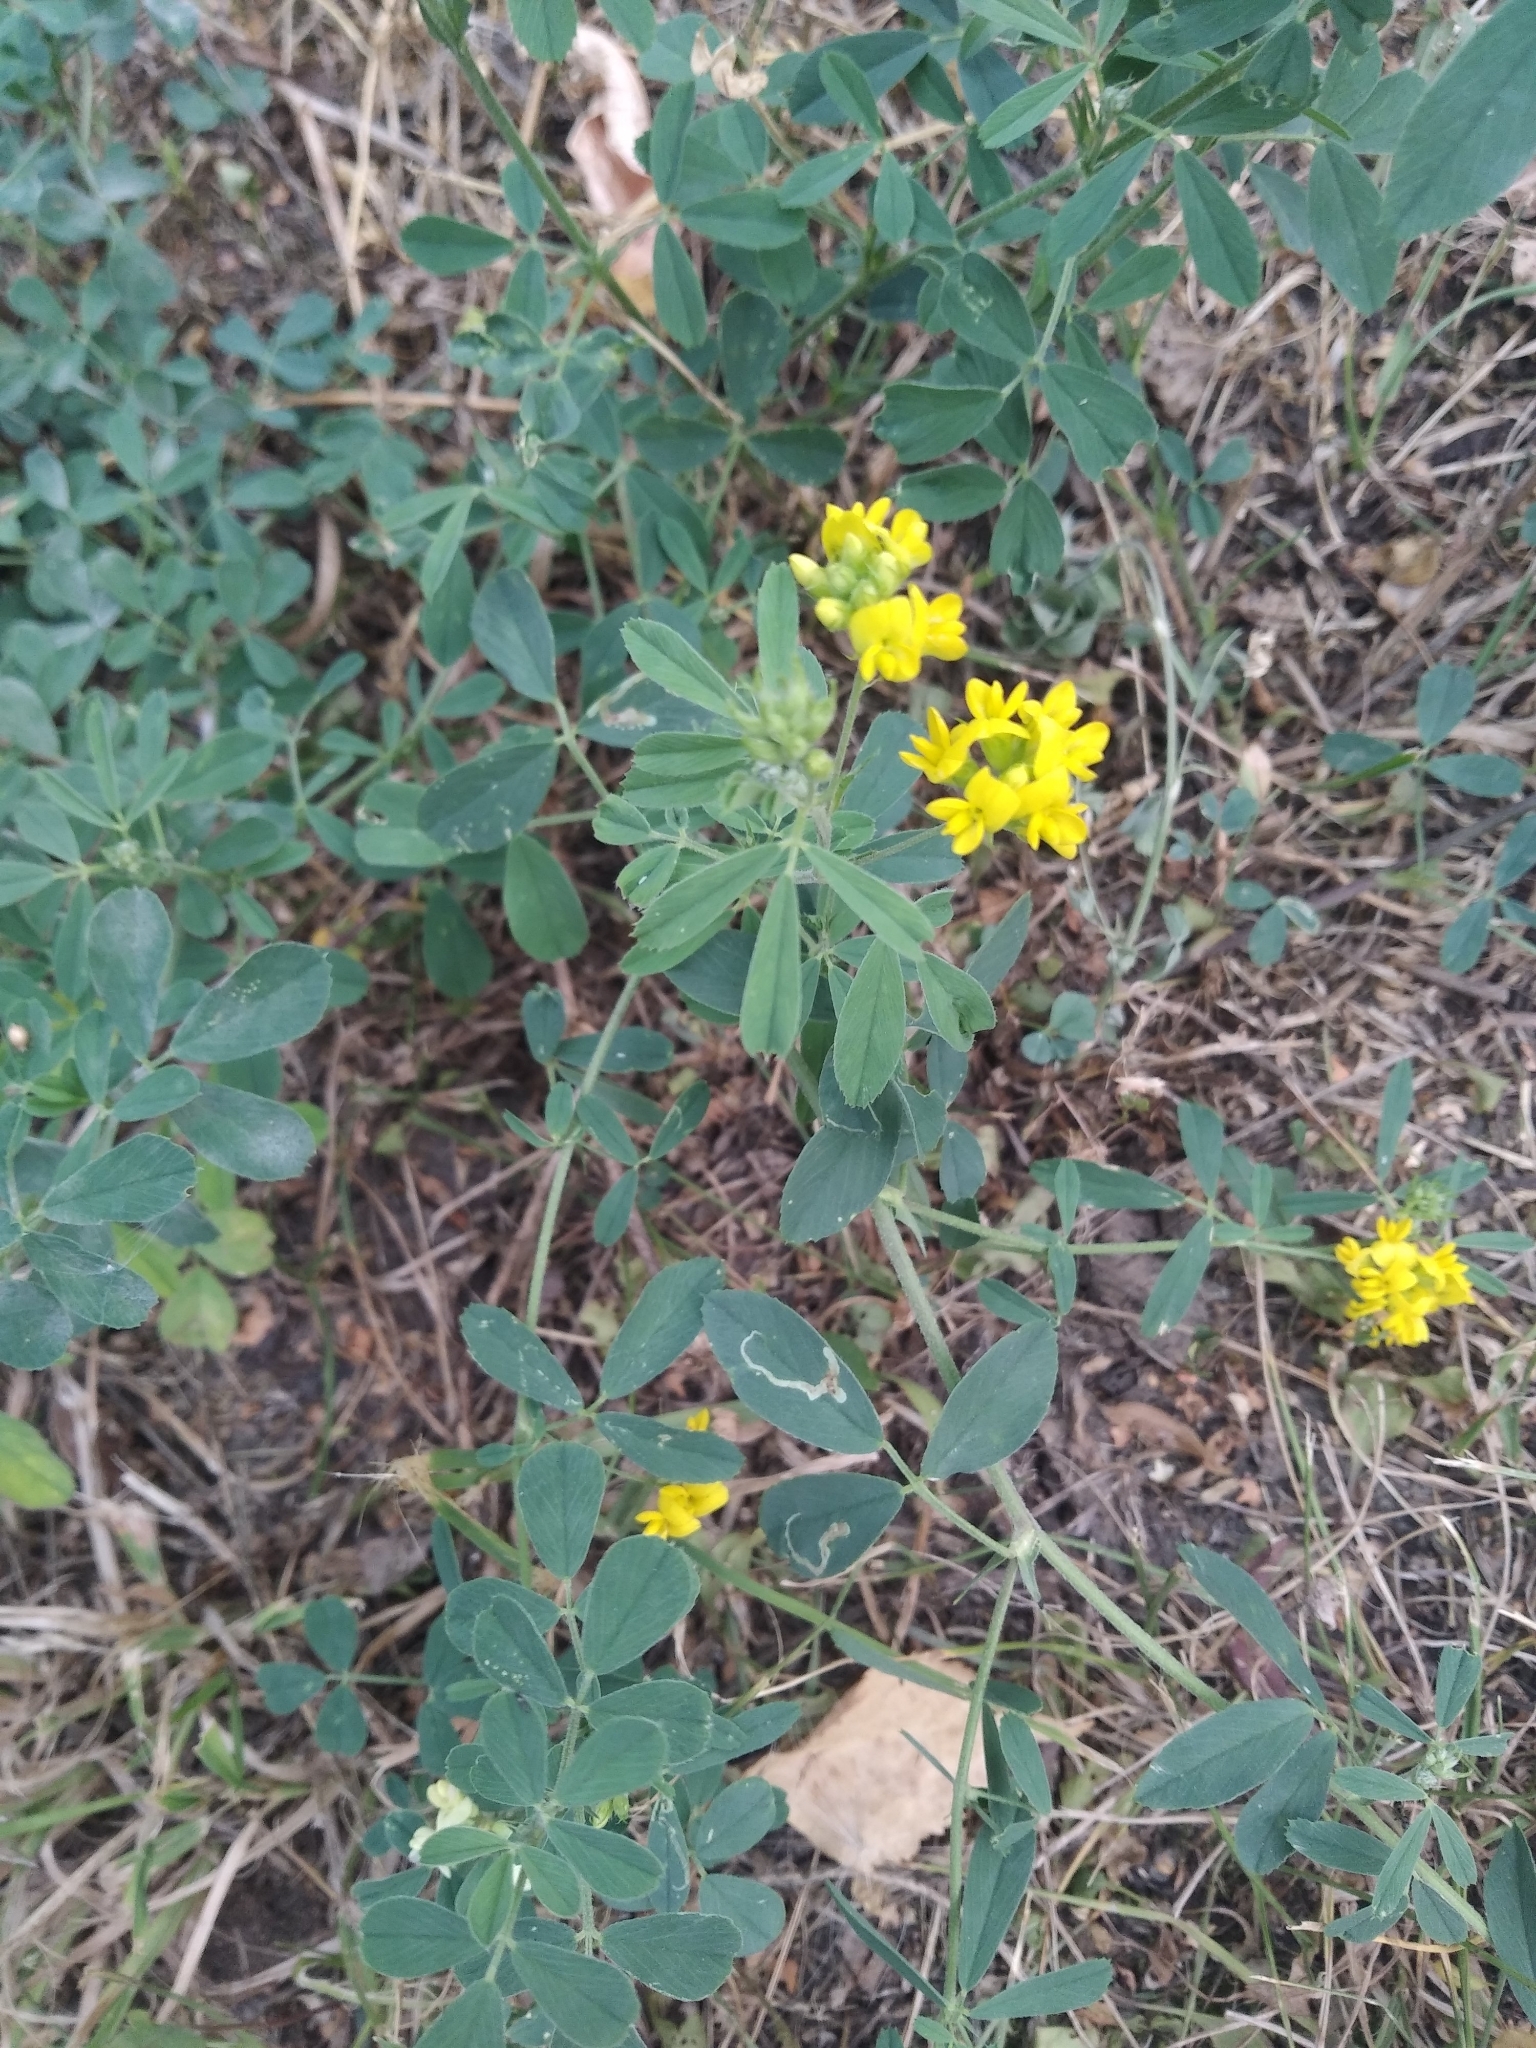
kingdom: Plantae
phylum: Tracheophyta
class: Magnoliopsida
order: Fabales
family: Fabaceae
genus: Medicago
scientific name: Medicago falcata
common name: Sickle medick
